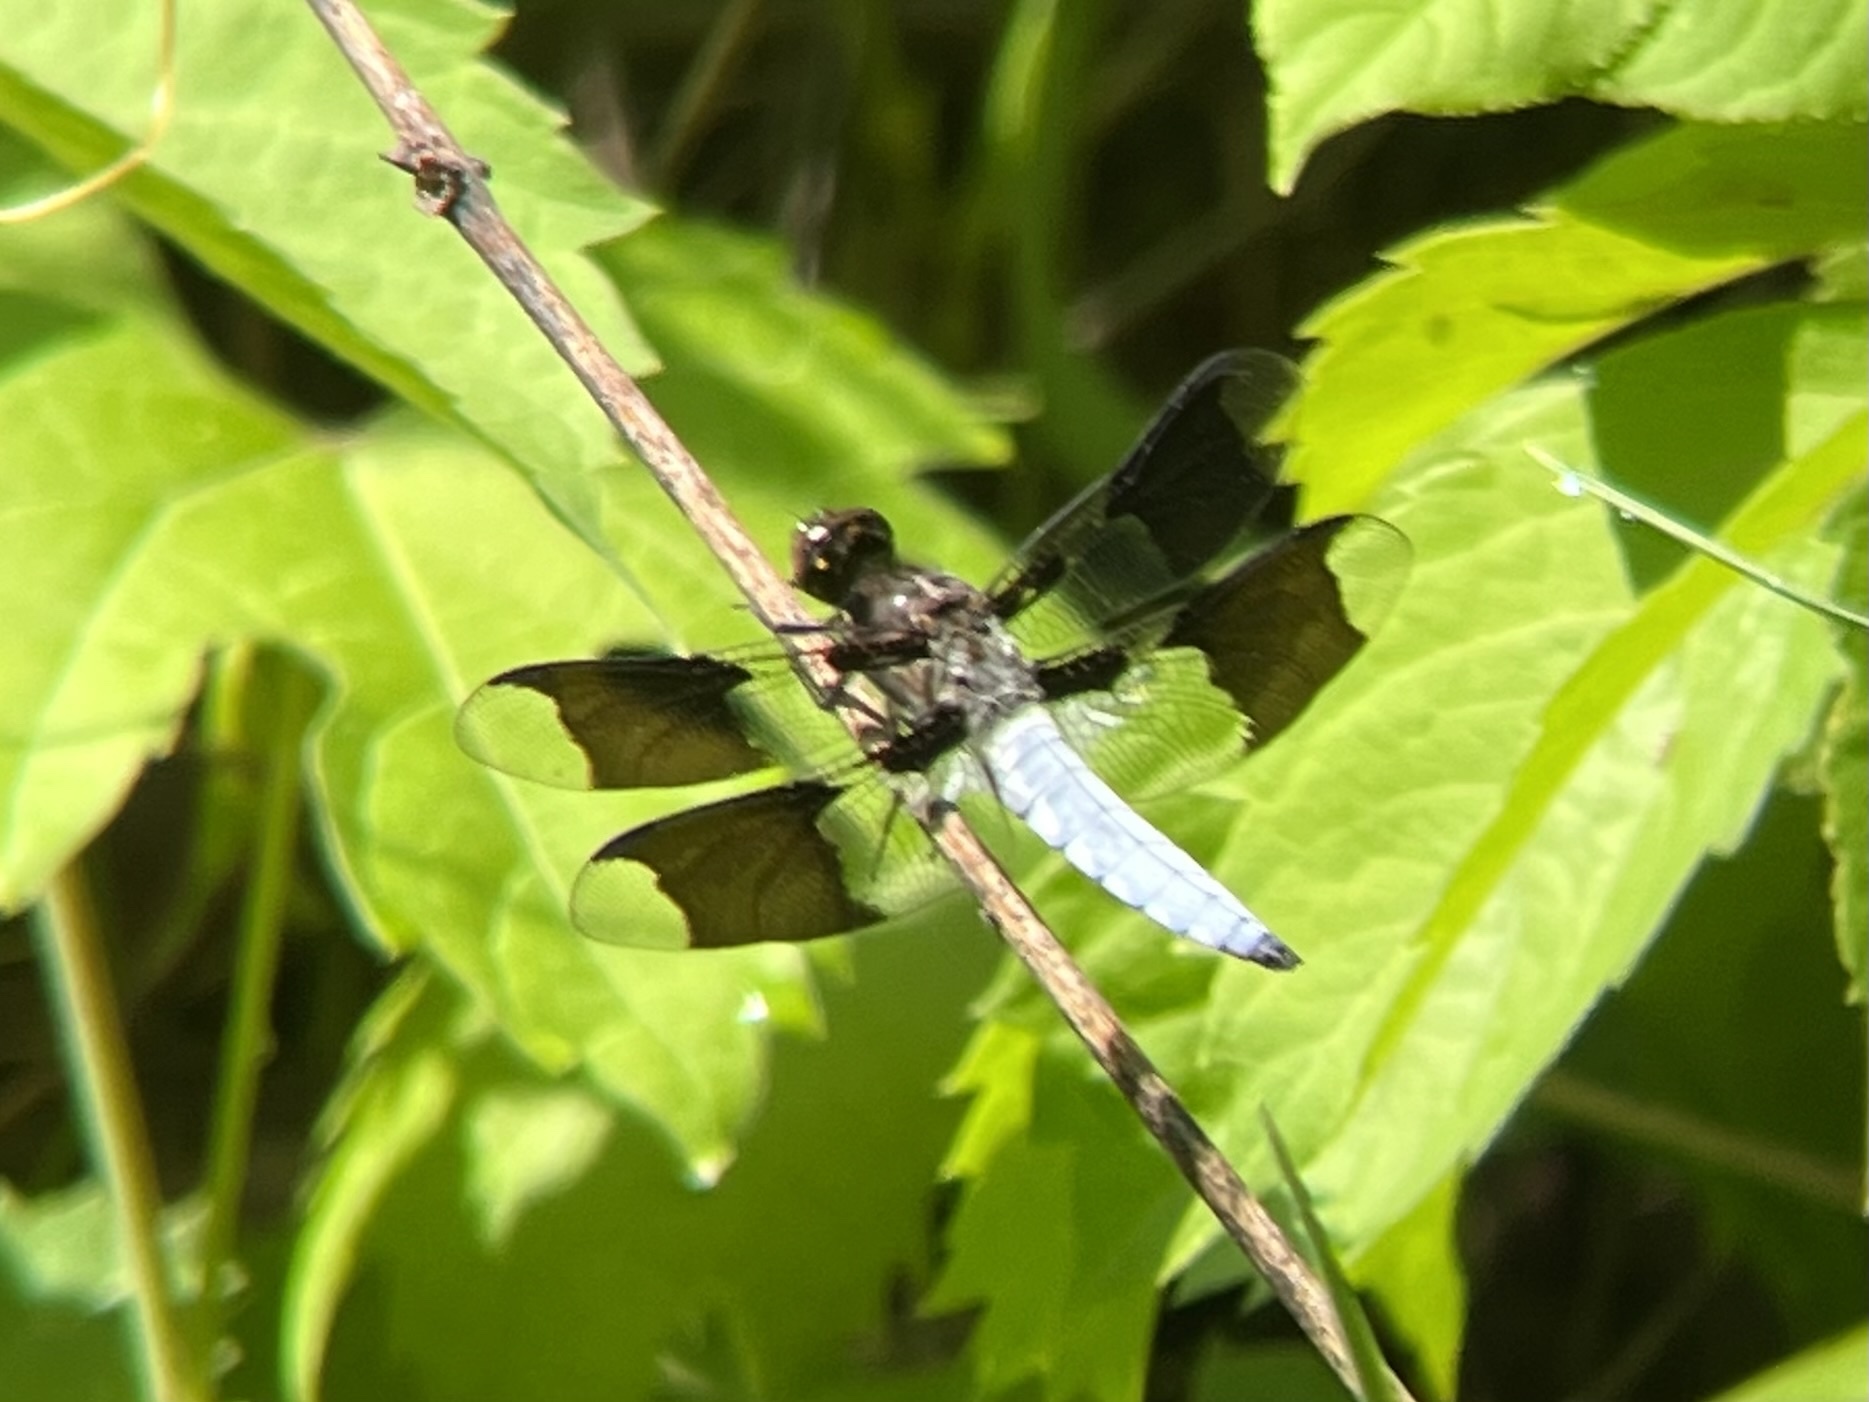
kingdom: Animalia
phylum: Arthropoda
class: Insecta
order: Odonata
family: Libellulidae
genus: Plathemis
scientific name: Plathemis lydia
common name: Common whitetail
